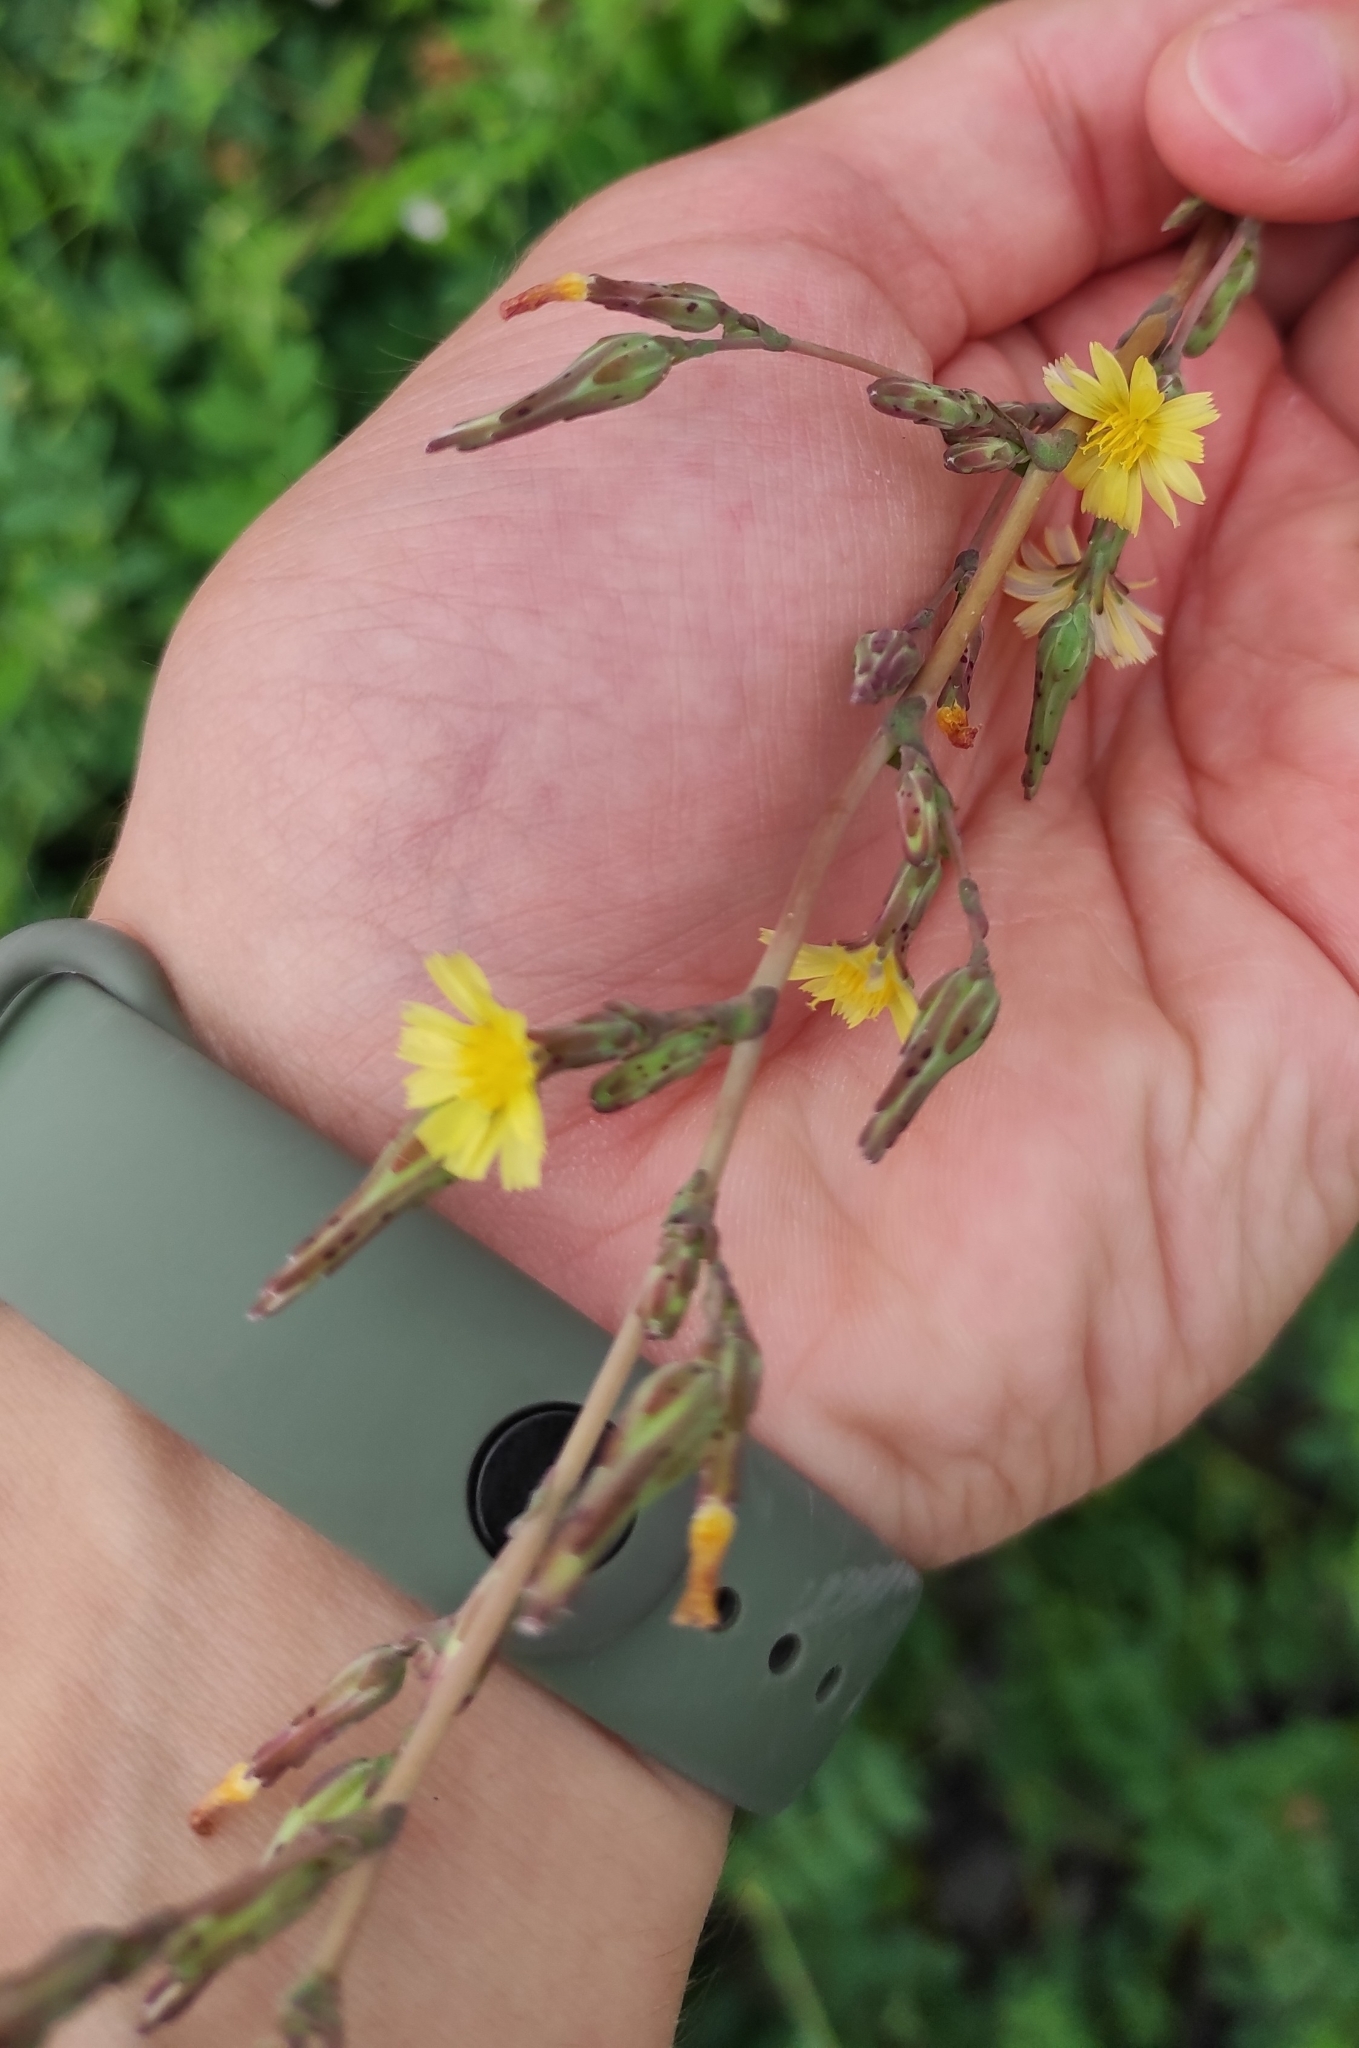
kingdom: Plantae
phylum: Tracheophyta
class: Magnoliopsida
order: Asterales
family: Asteraceae
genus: Lactuca
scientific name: Lactuca serriola
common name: Prickly lettuce
